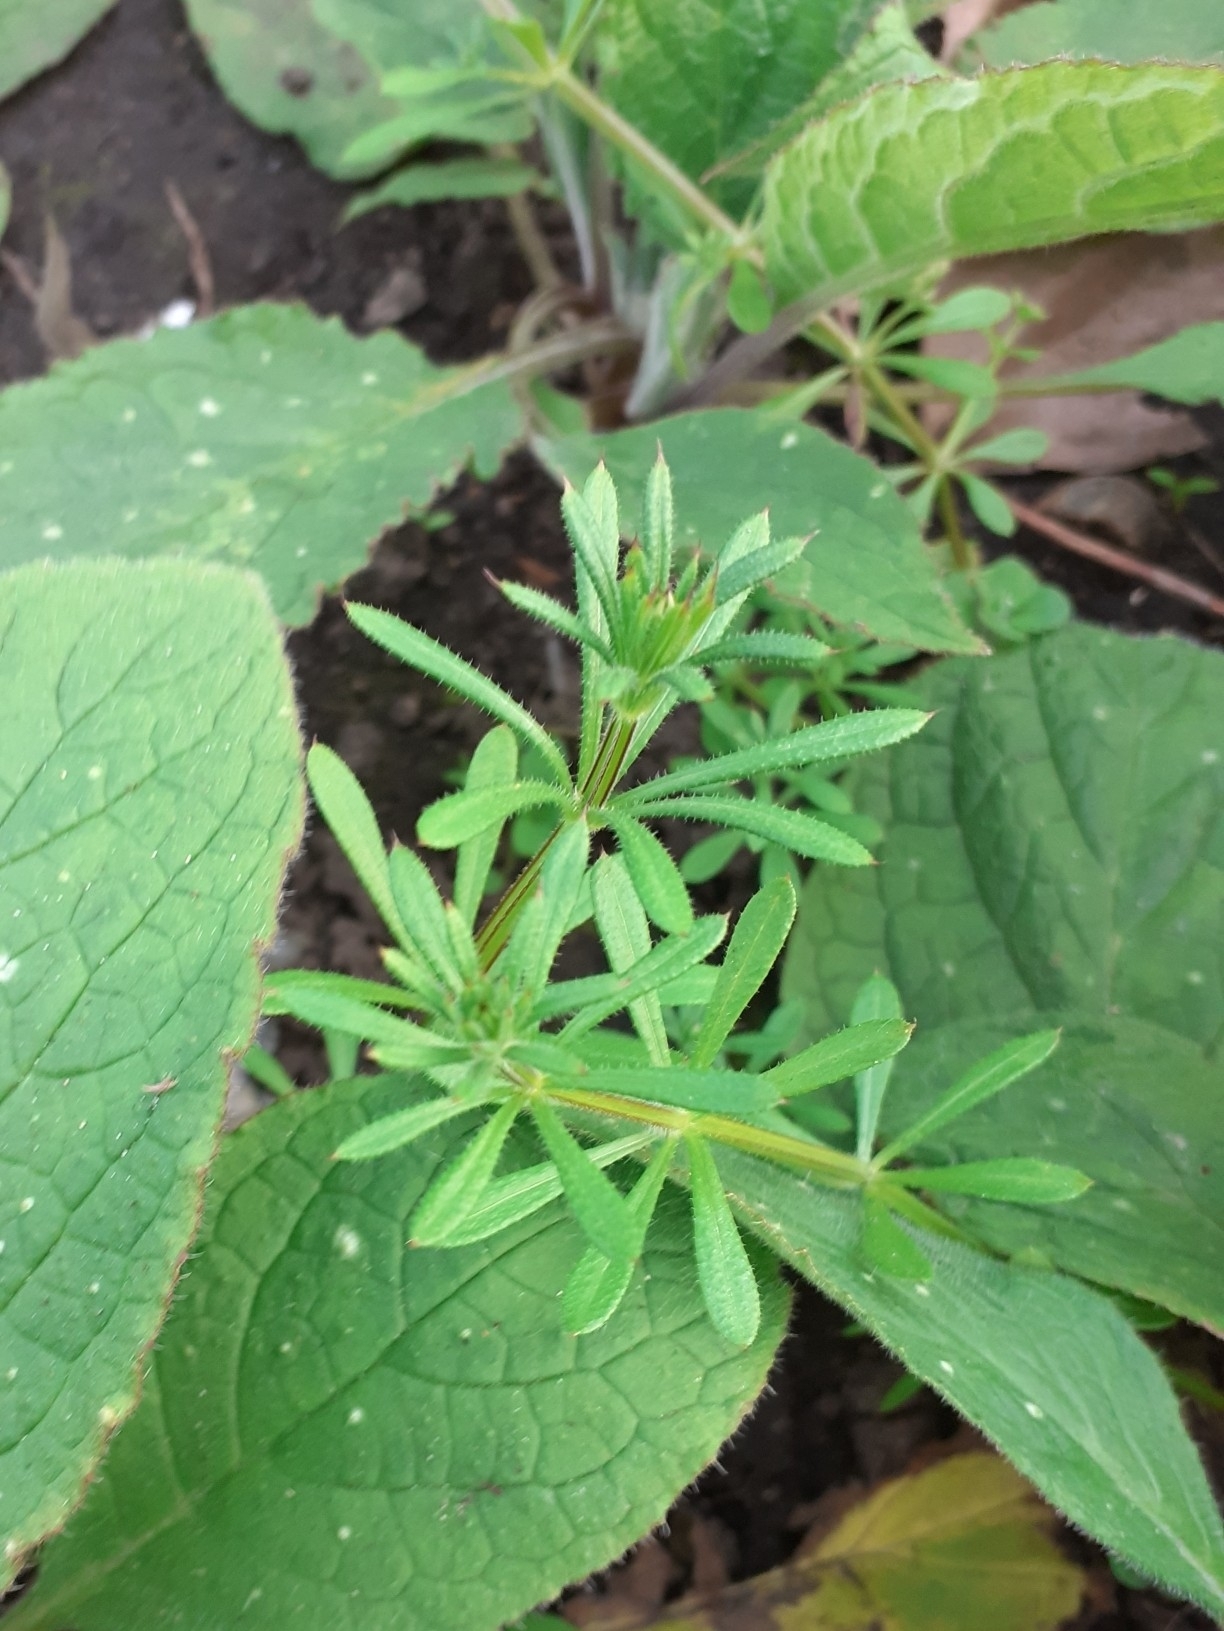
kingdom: Plantae
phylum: Tracheophyta
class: Magnoliopsida
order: Gentianales
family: Rubiaceae
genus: Galium
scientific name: Galium aparine
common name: Cleavers
